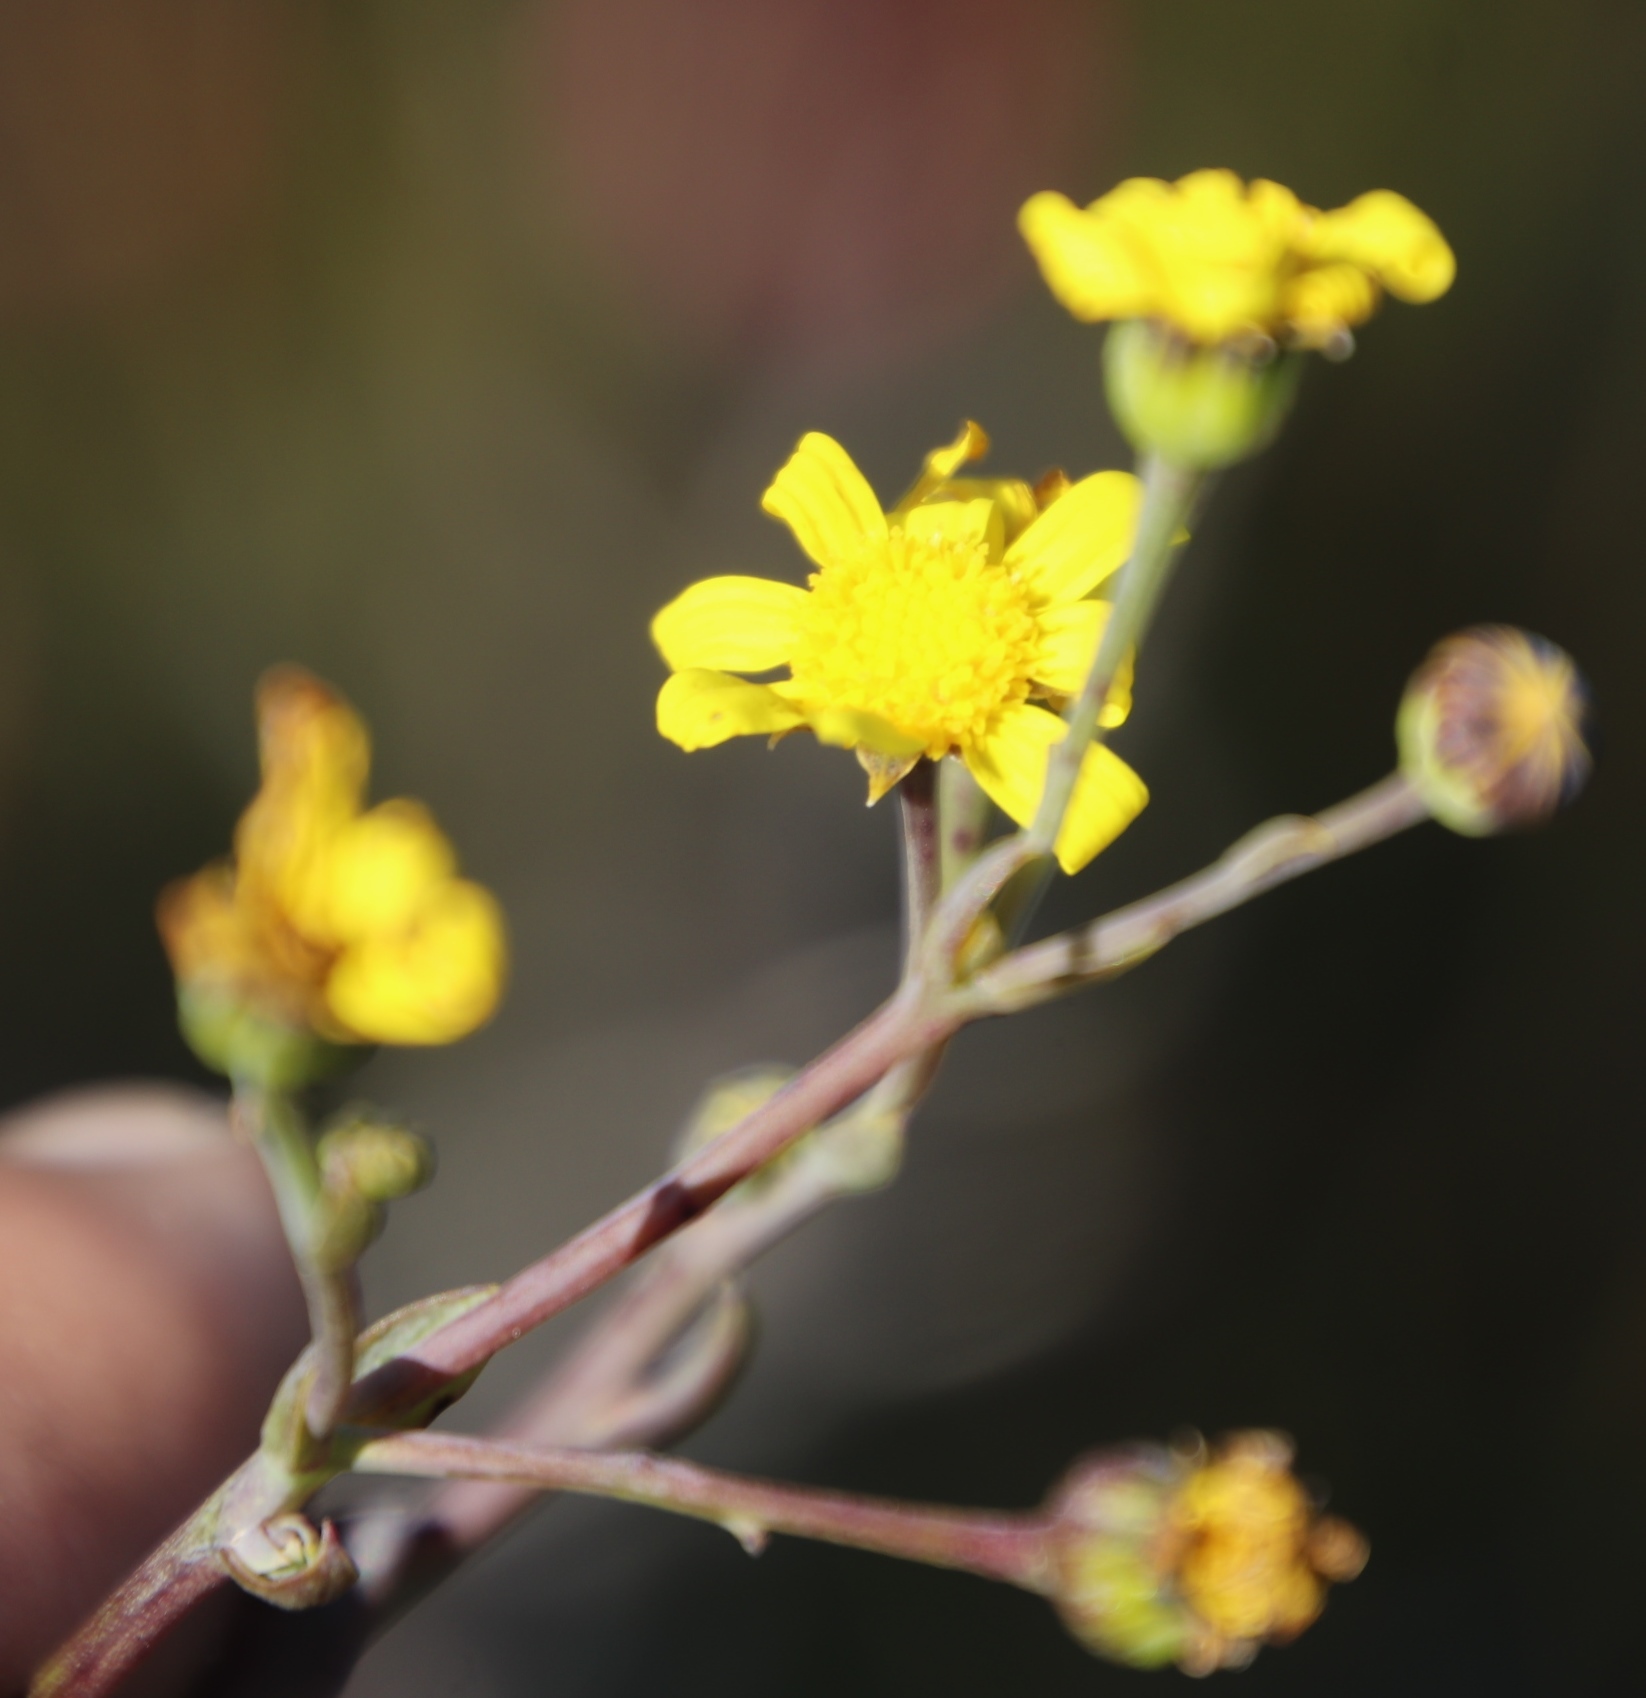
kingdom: Plantae
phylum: Tracheophyta
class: Magnoliopsida
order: Asterales
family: Asteraceae
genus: Othonna
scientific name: Othonna quinquedentata
